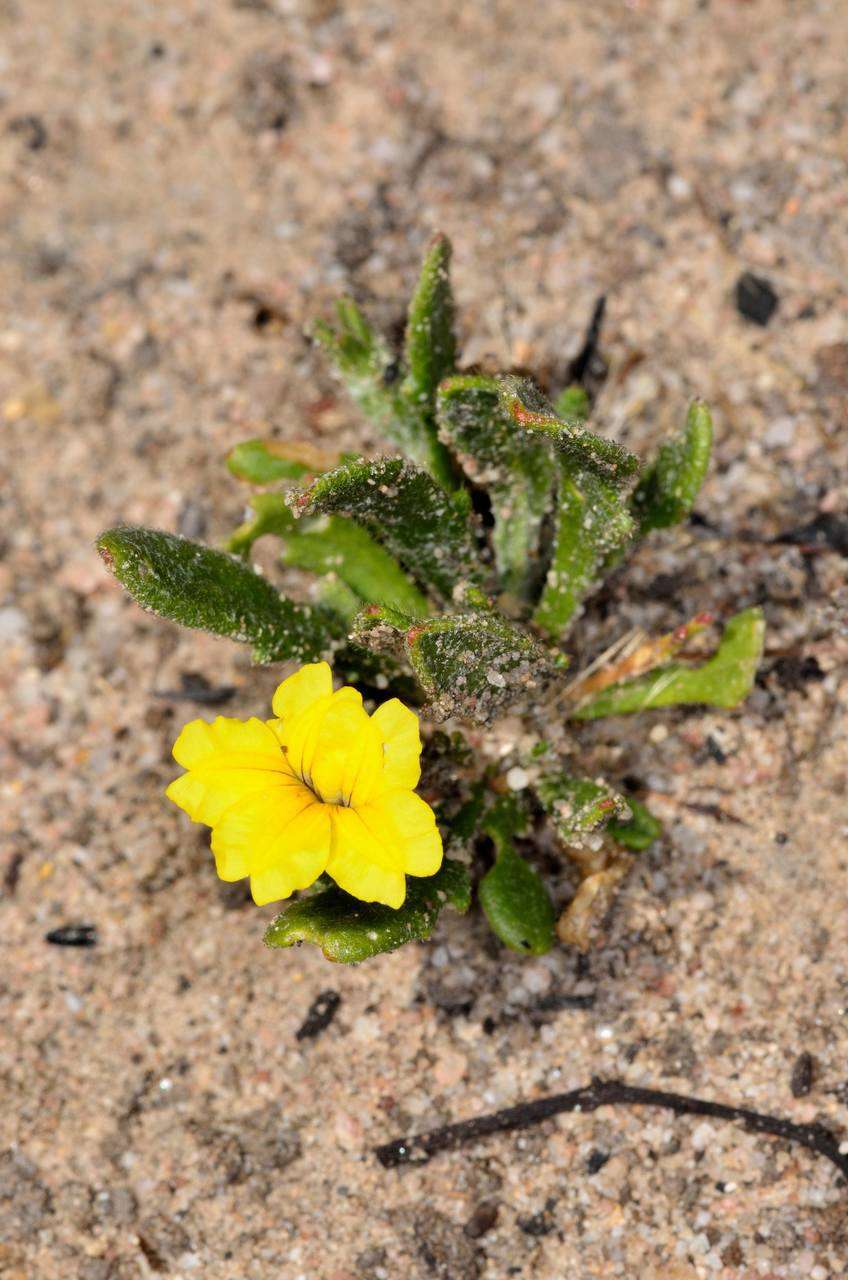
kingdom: Plantae
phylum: Tracheophyta
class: Magnoliopsida
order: Asterales
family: Goodeniaceae
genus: Goodenia
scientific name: Goodenia geniculata
